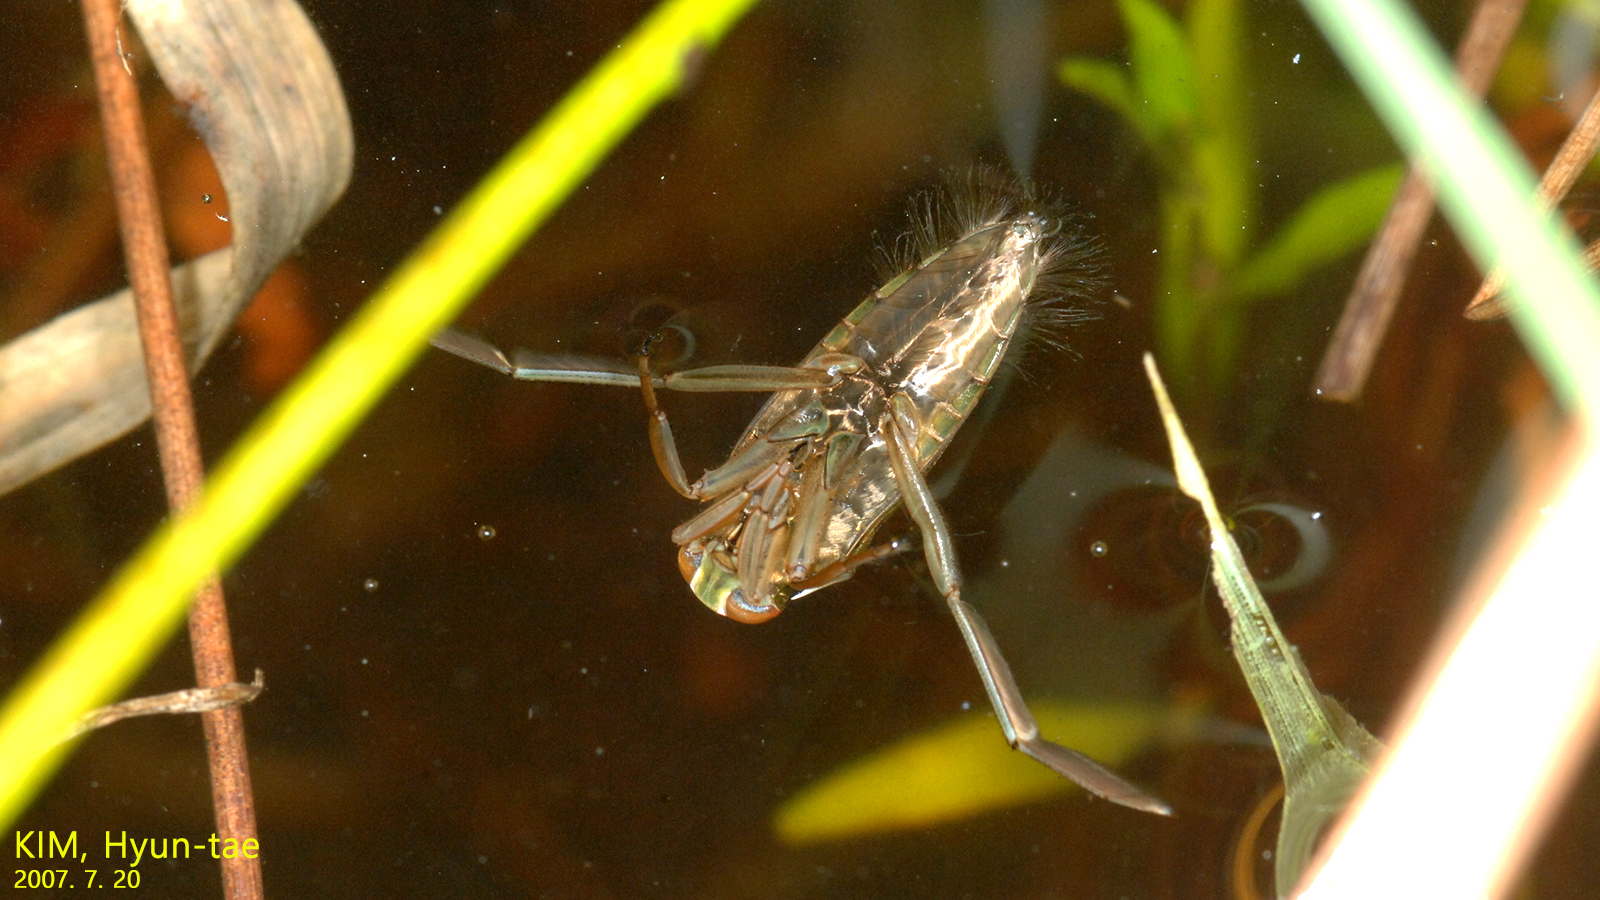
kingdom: Animalia
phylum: Arthropoda
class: Insecta
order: Hemiptera
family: Notonectidae
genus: Notonecta
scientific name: Notonecta
